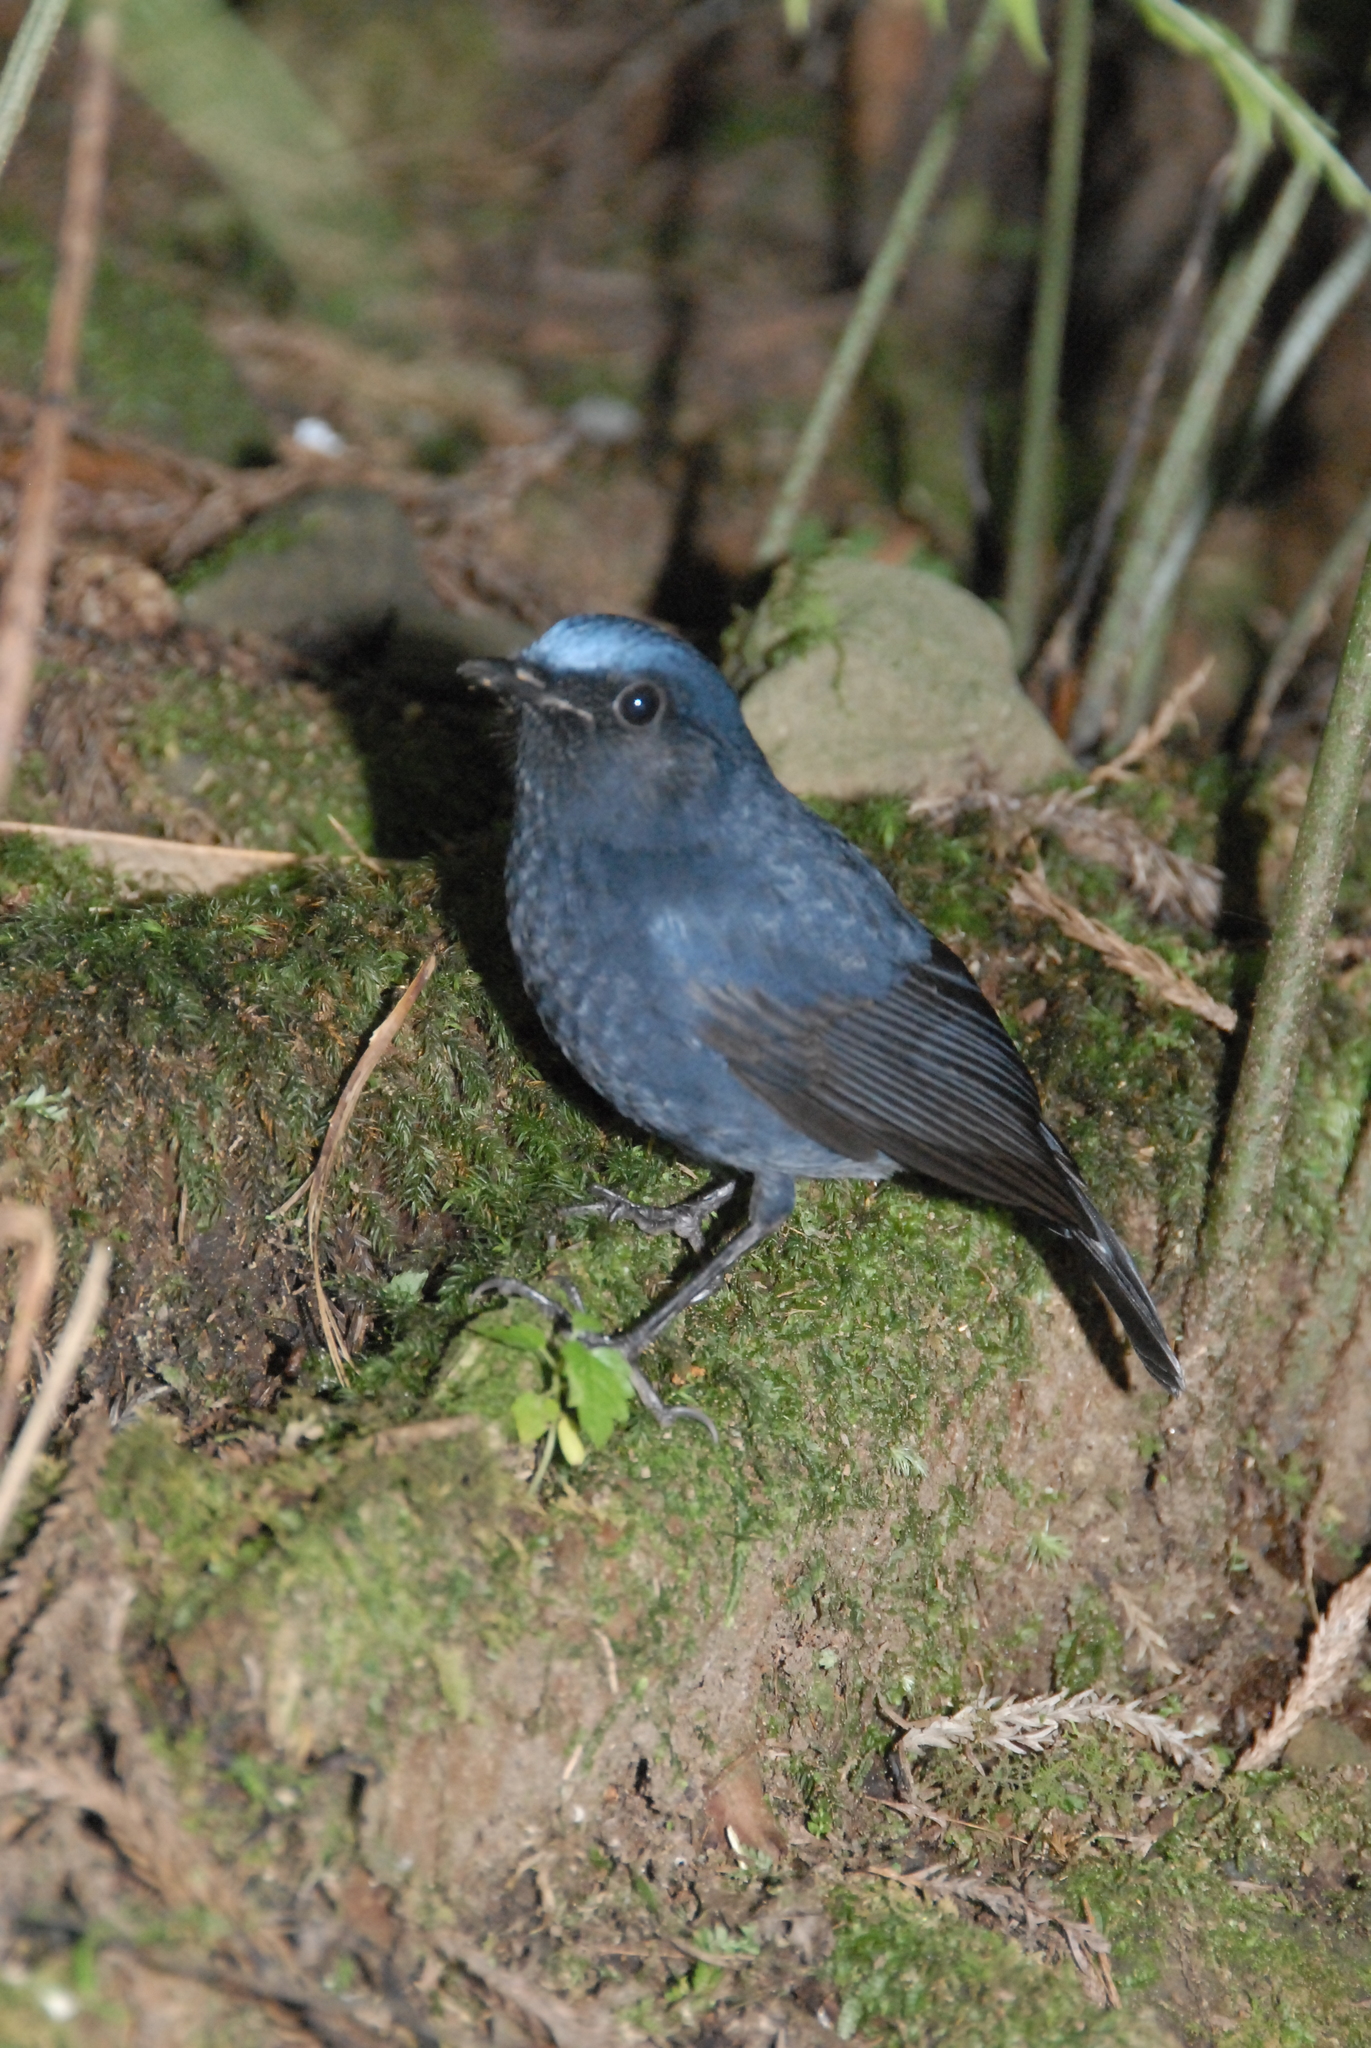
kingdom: Animalia
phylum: Chordata
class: Aves
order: Passeriformes
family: Muscicapidae
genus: Myiomela
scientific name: Myiomela leucura
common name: White-tailed robin
